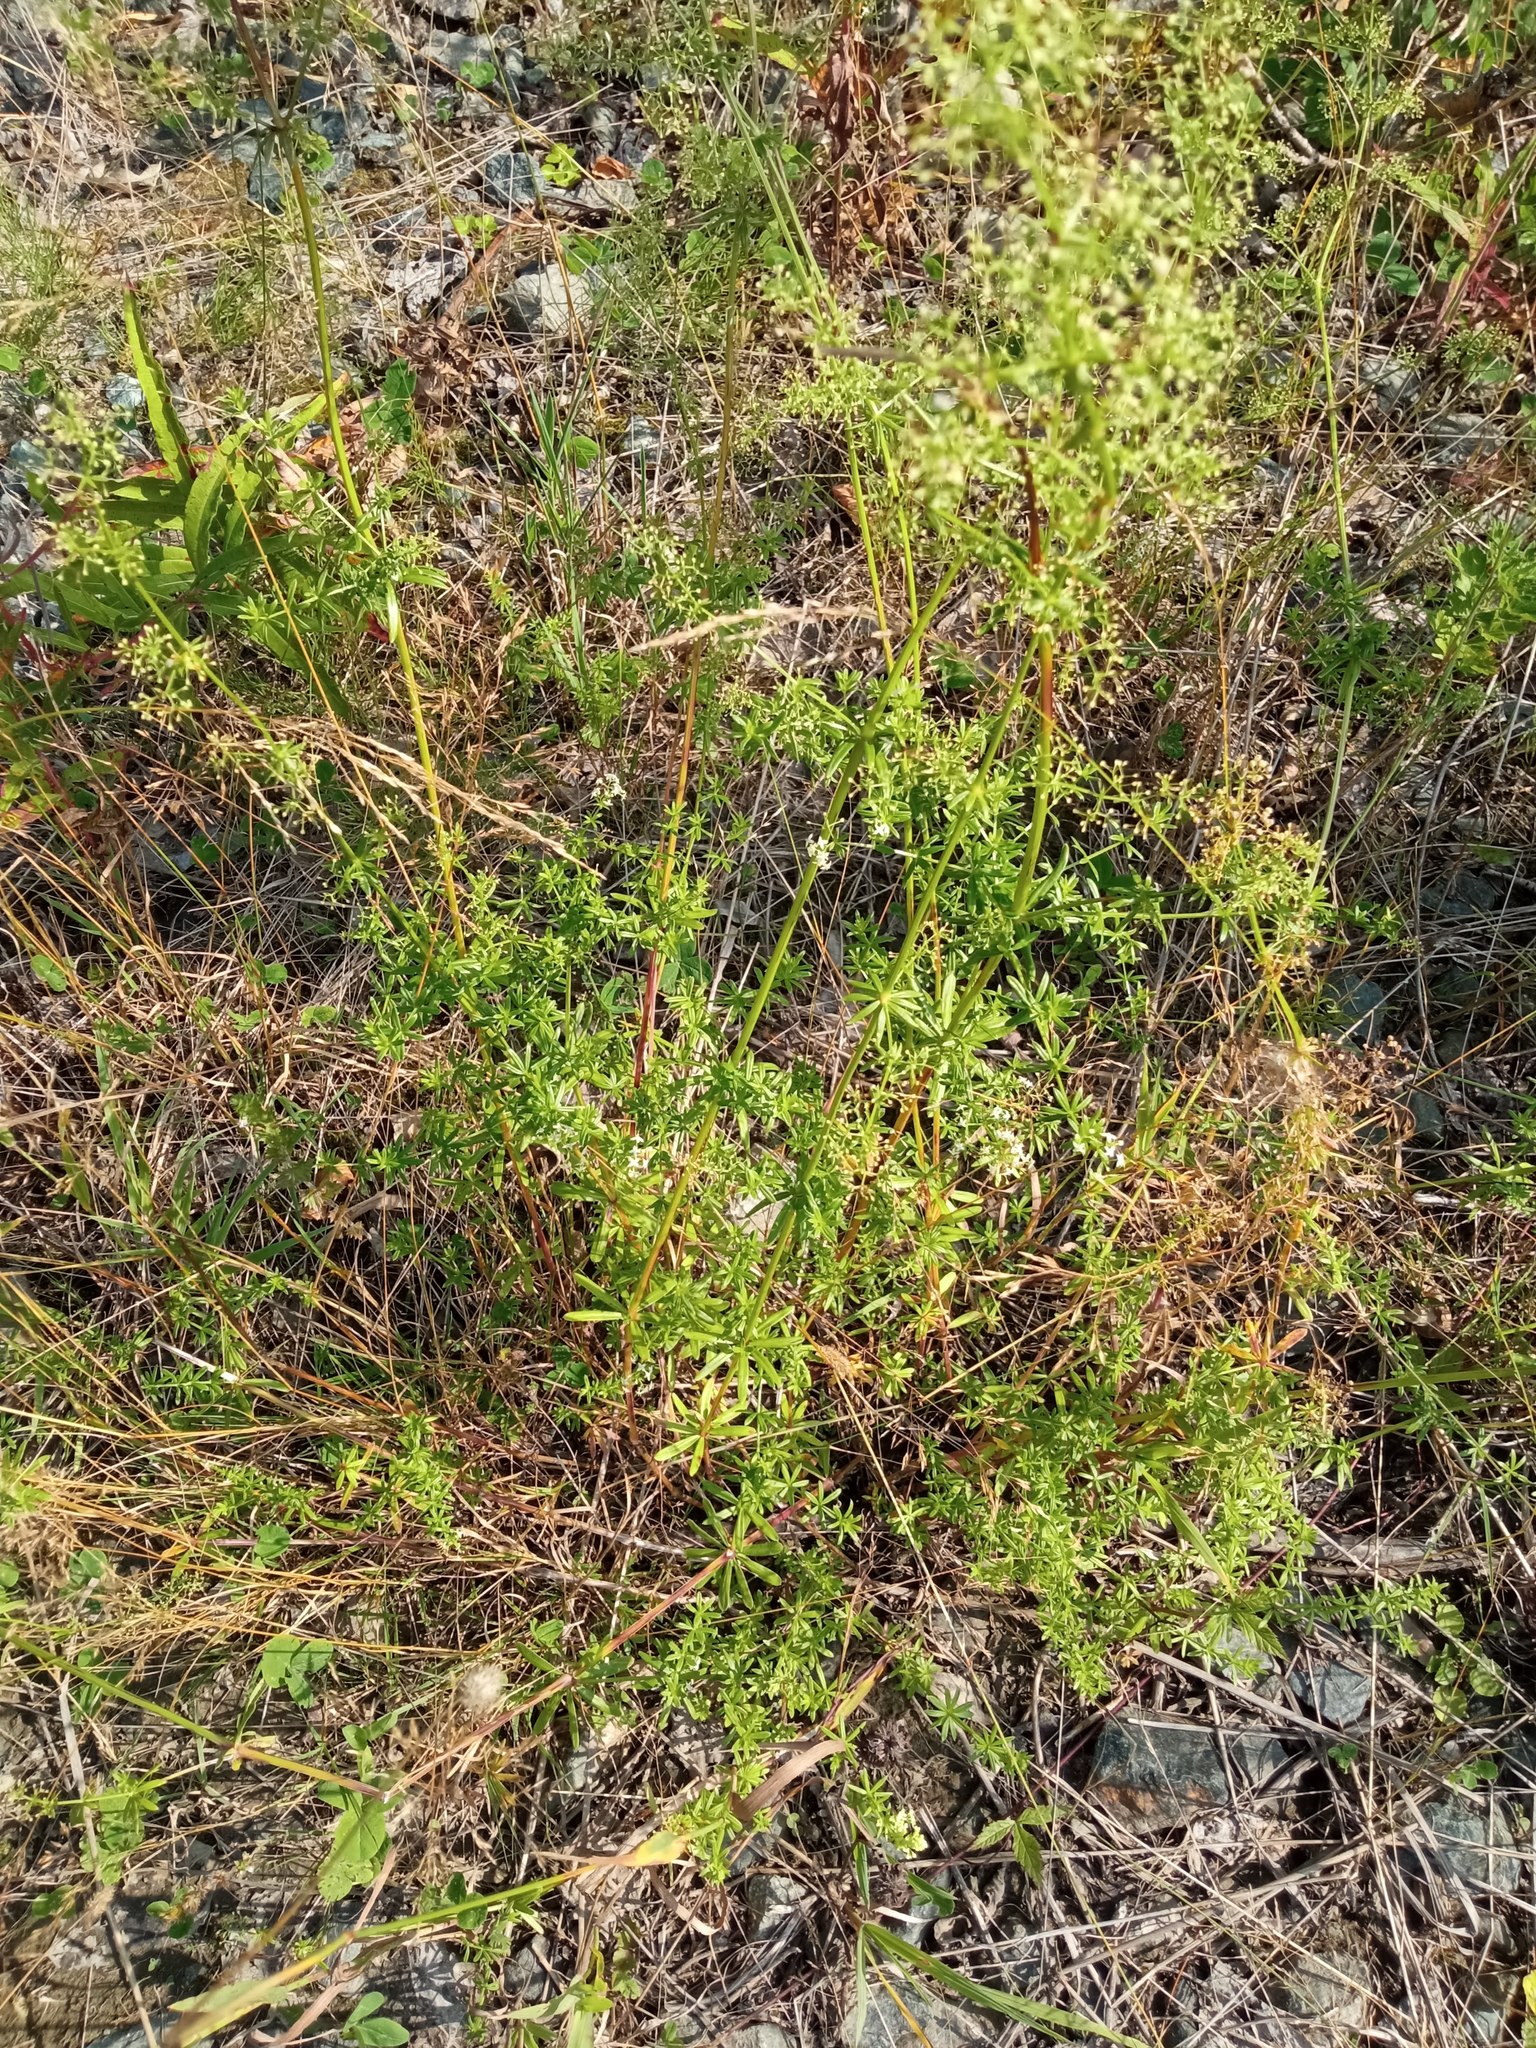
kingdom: Plantae
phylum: Tracheophyta
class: Magnoliopsida
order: Gentianales
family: Rubiaceae
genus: Galium
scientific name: Galium mollugo
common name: Hedge bedstraw
